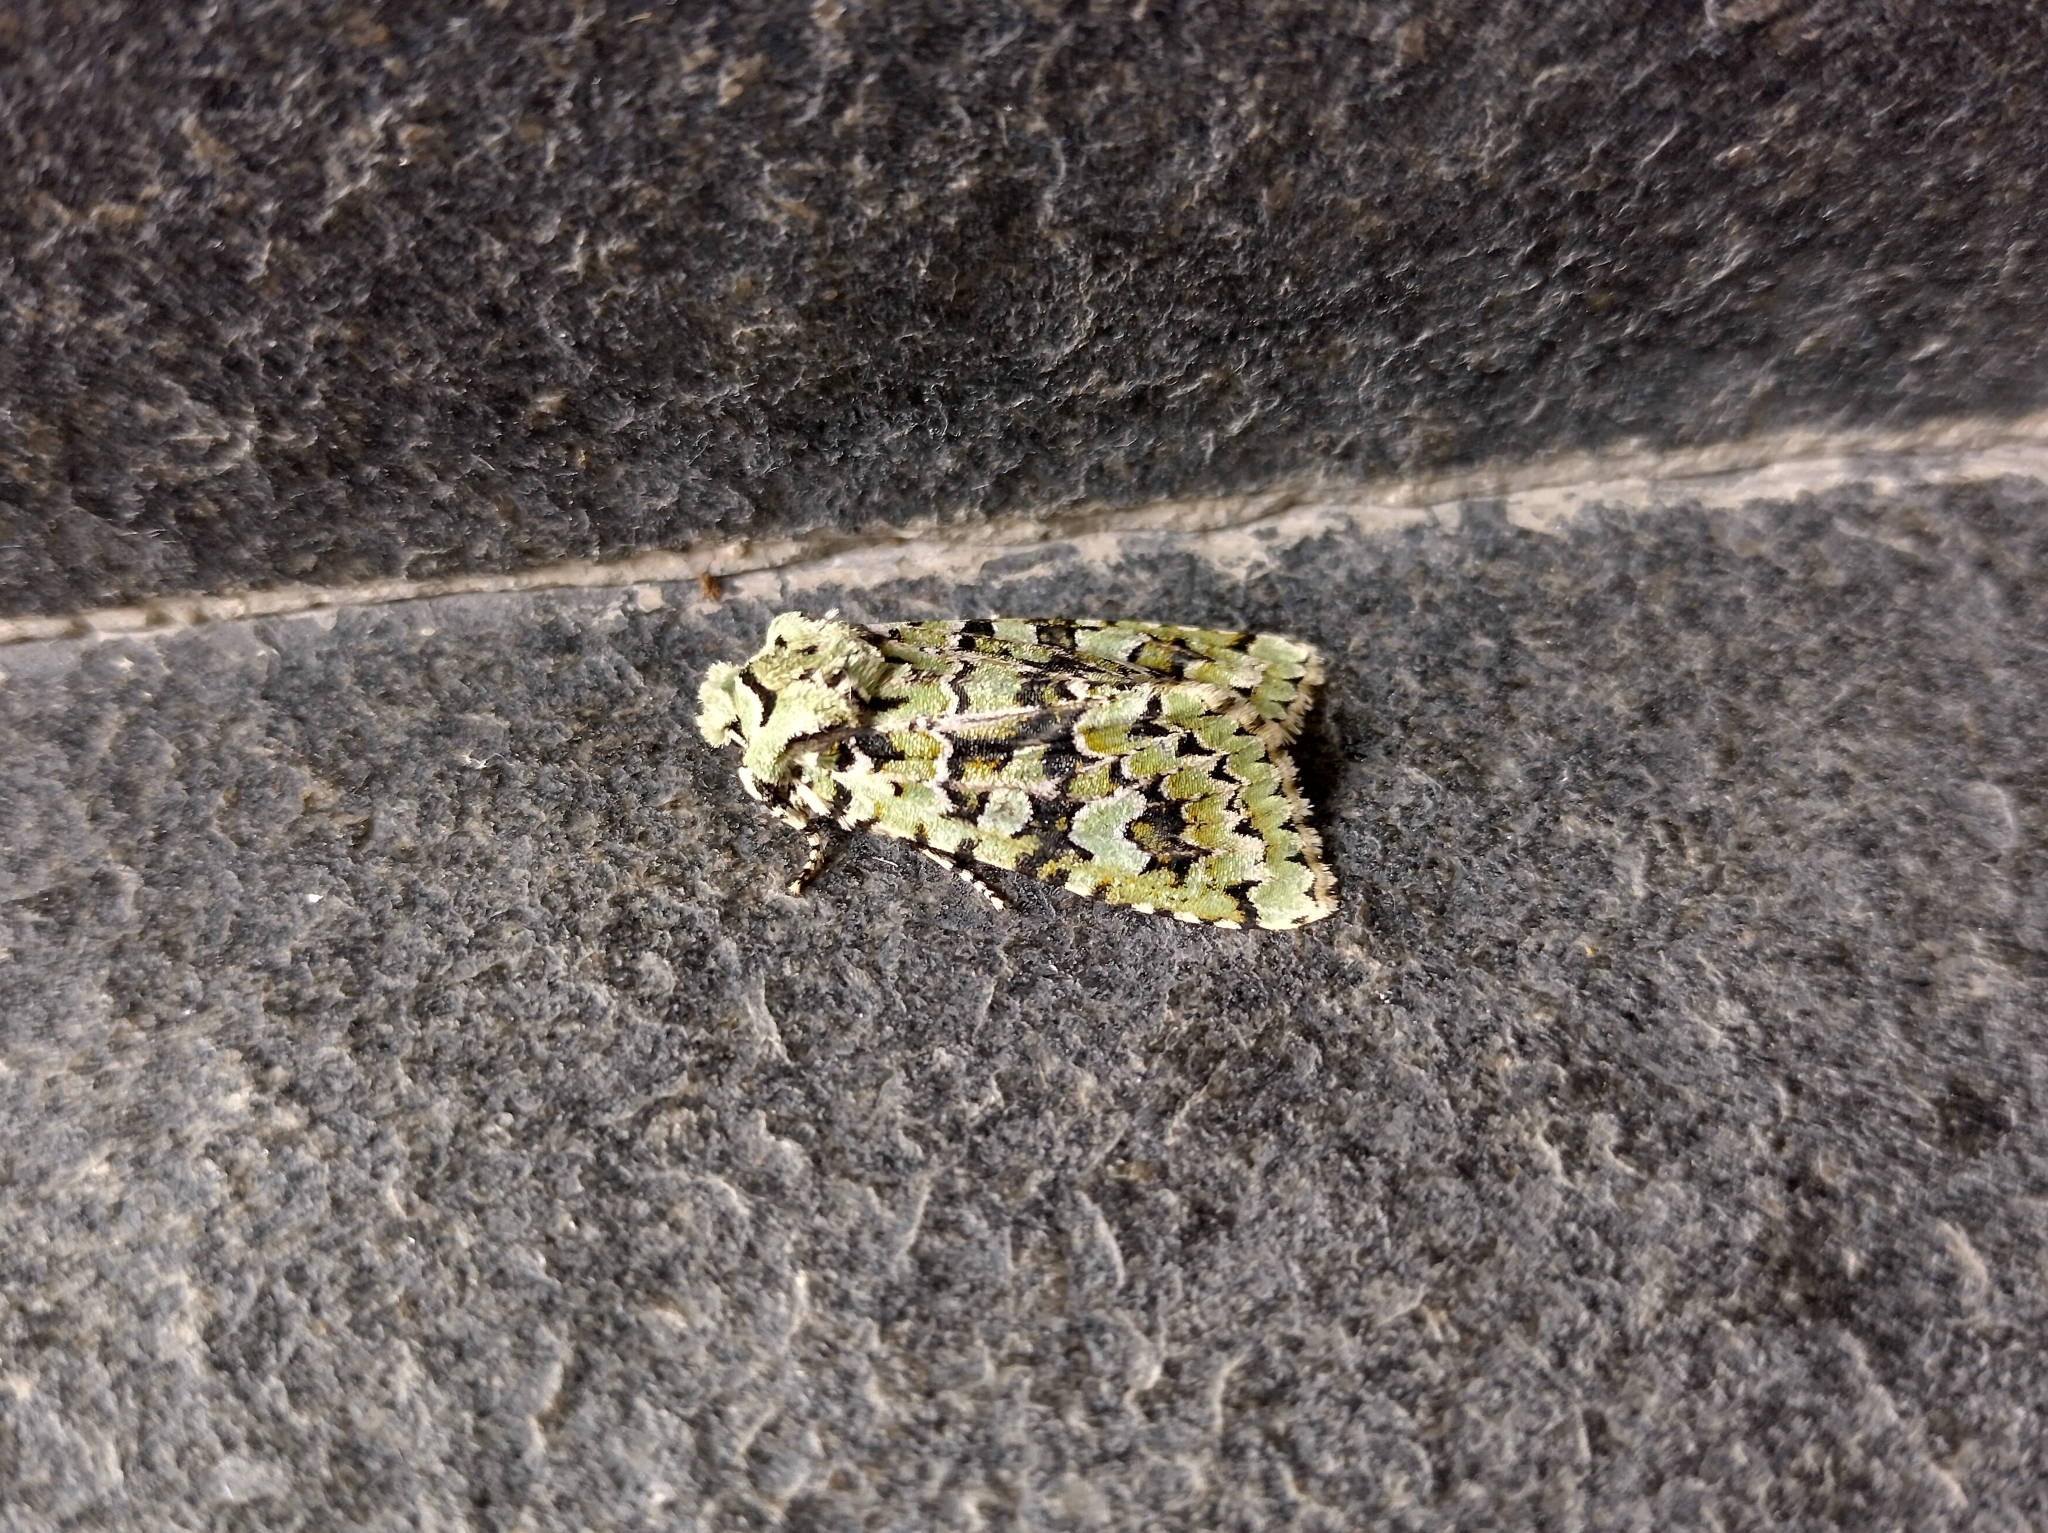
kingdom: Animalia
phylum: Arthropoda
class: Insecta
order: Lepidoptera
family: Noctuidae
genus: Griposia
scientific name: Griposia aprilina
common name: Merveille du jour
